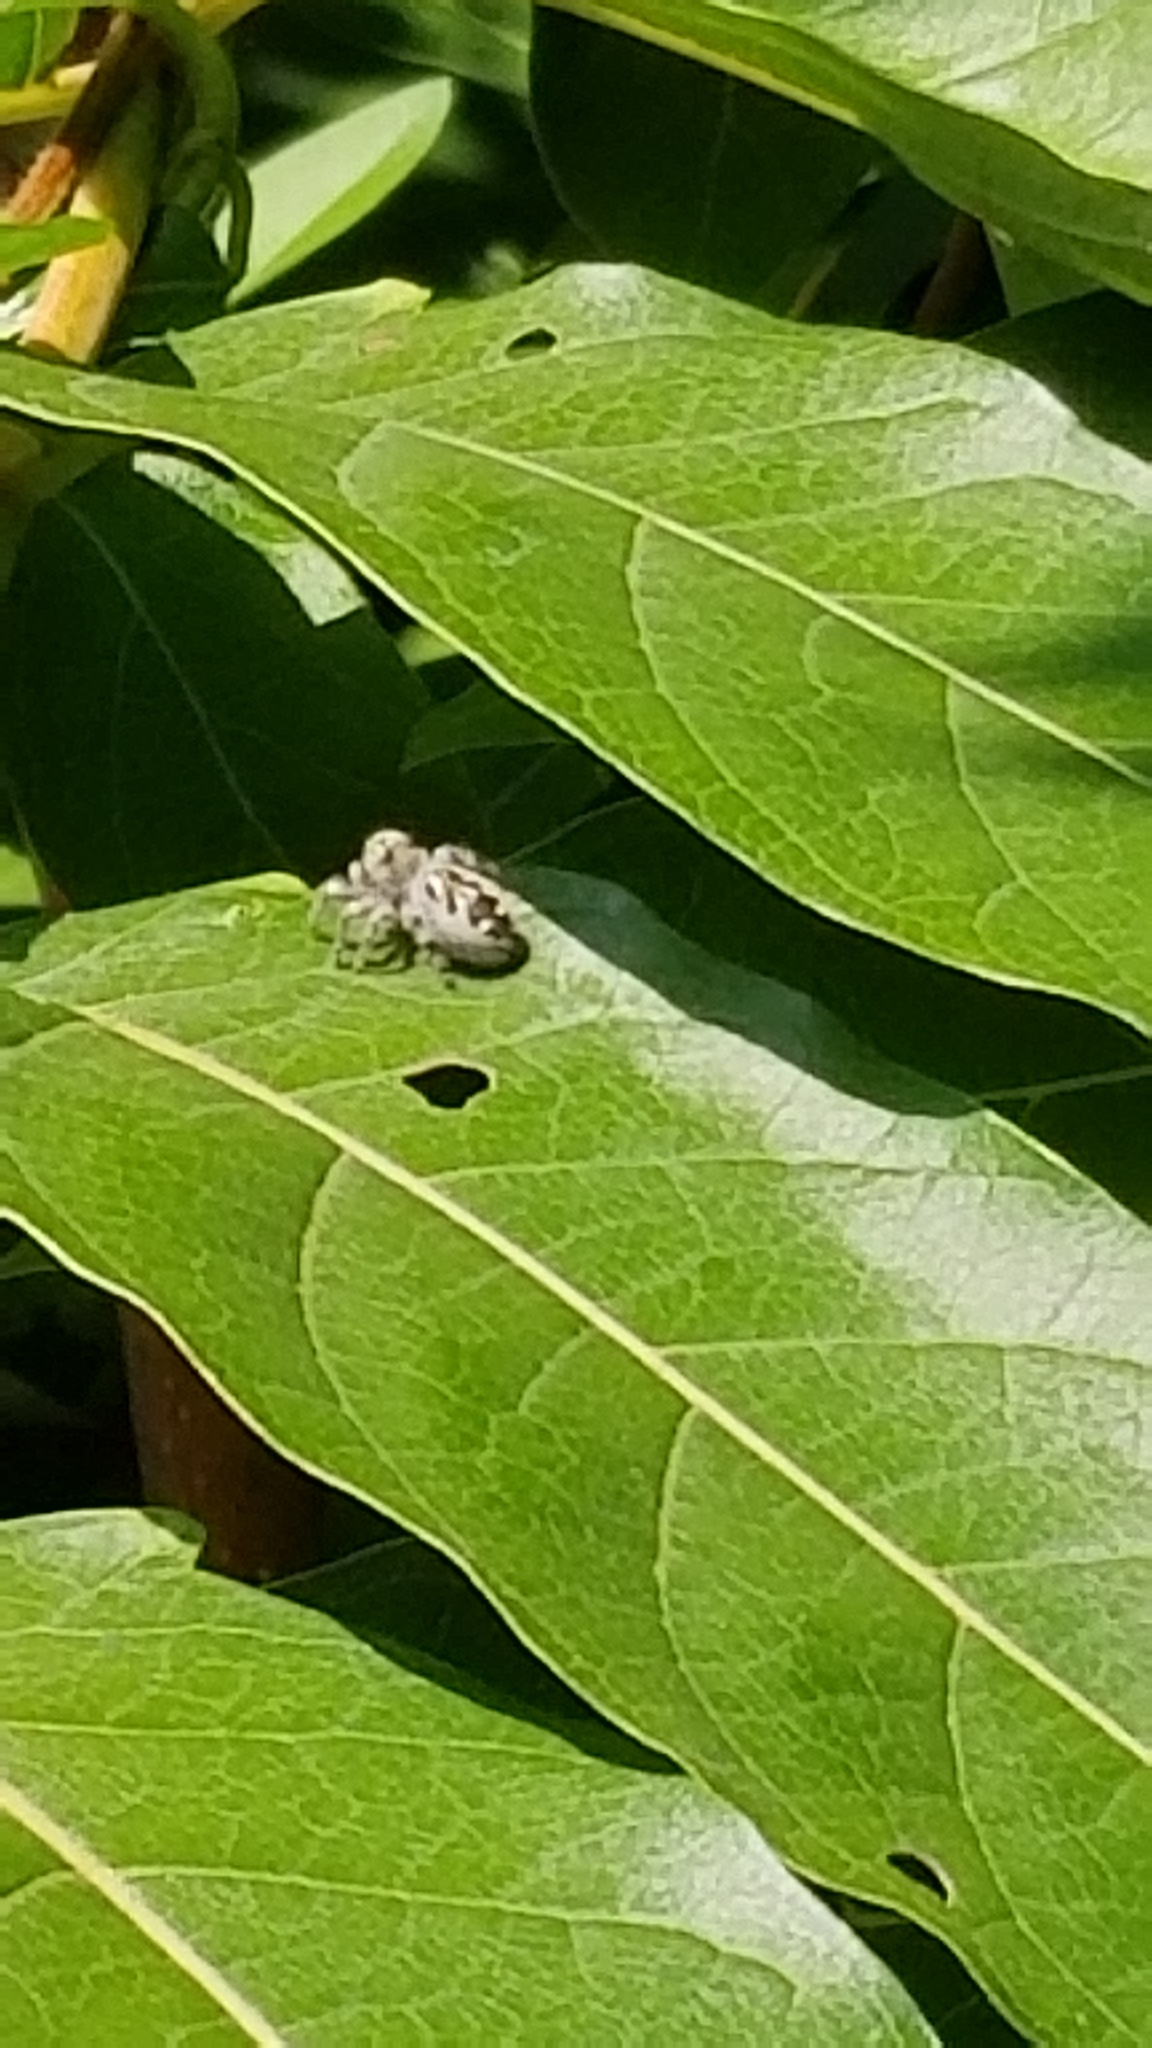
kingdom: Animalia
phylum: Arthropoda
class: Arachnida
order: Araneae
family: Salticidae
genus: Phidippus
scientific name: Phidippus otiosus
